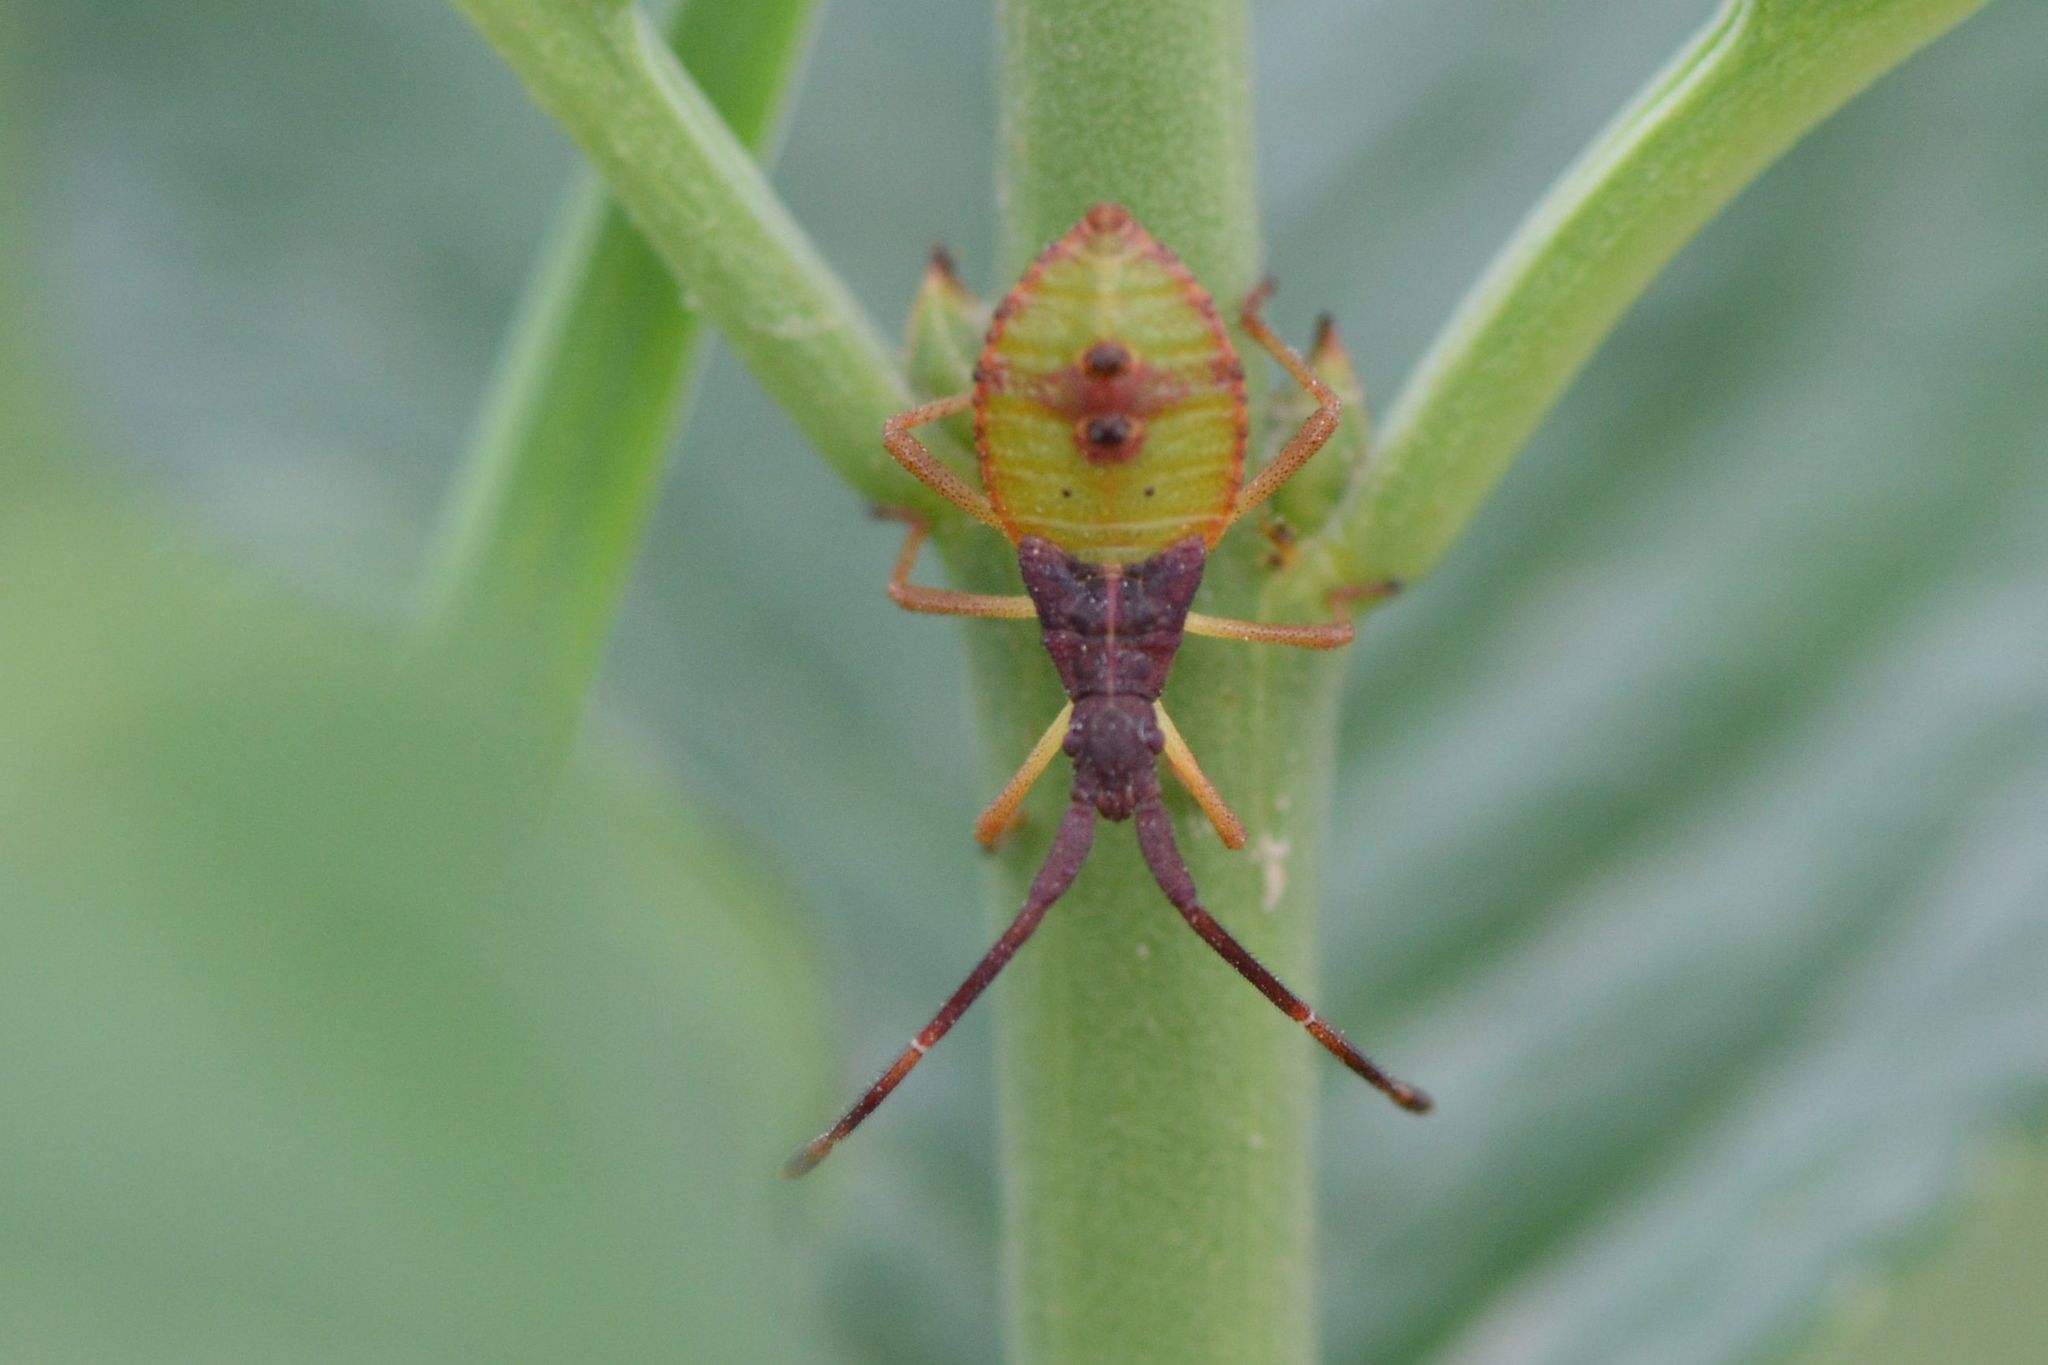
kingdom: Animalia
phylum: Arthropoda
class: Insecta
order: Hemiptera
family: Coreidae
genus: Gonocerus
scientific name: Gonocerus acuteangulatus
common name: Box bug
